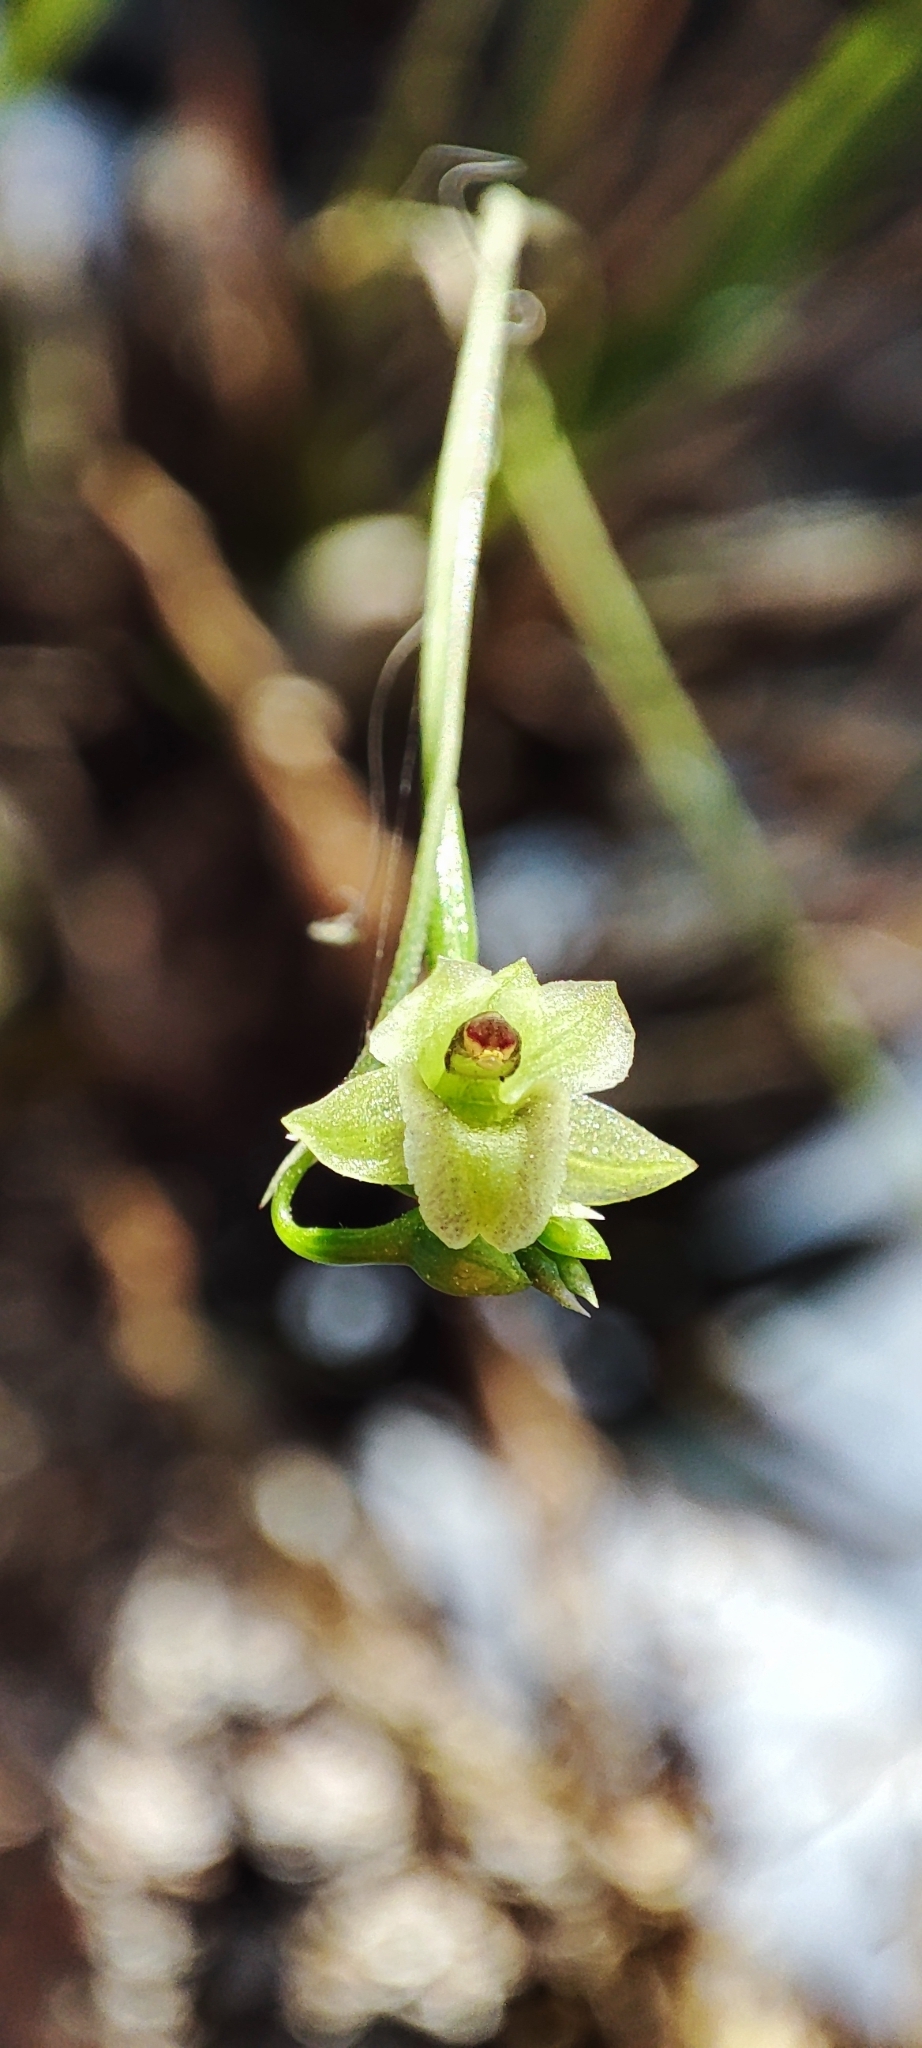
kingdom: Plantae
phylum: Tracheophyta
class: Liliopsida
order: Asparagales
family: Orchidaceae
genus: Scaphyglottis
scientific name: Scaphyglottis tenuis
